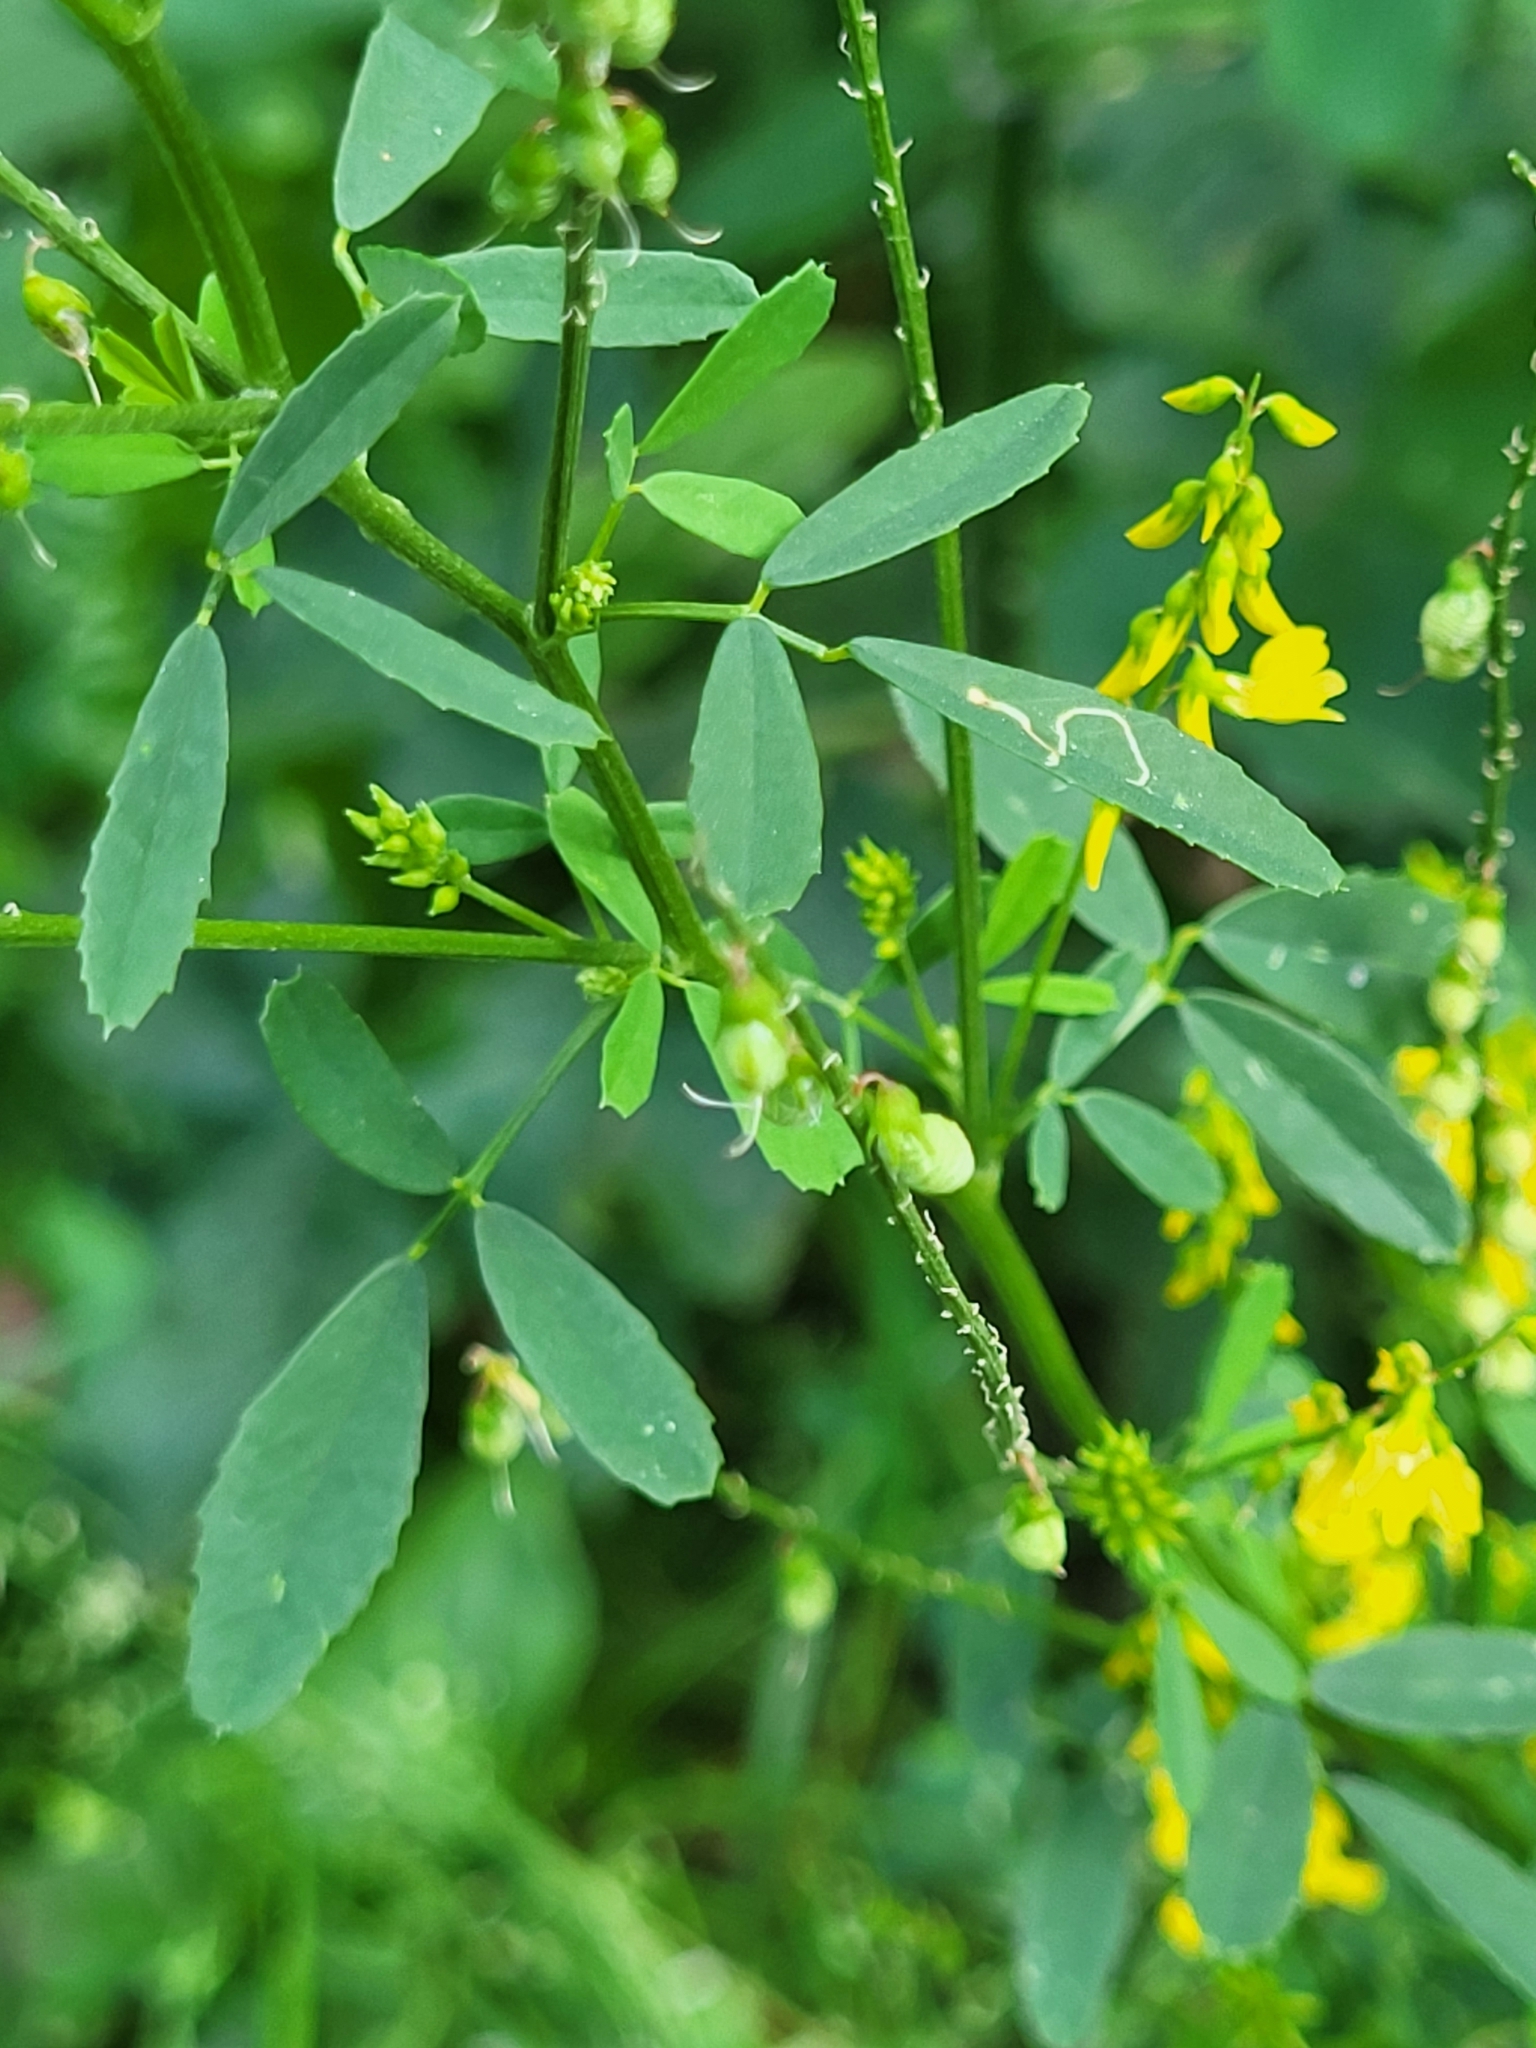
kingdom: Plantae
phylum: Tracheophyta
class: Magnoliopsida
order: Fabales
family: Fabaceae
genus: Melilotus
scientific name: Melilotus officinalis
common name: Sweetclover
